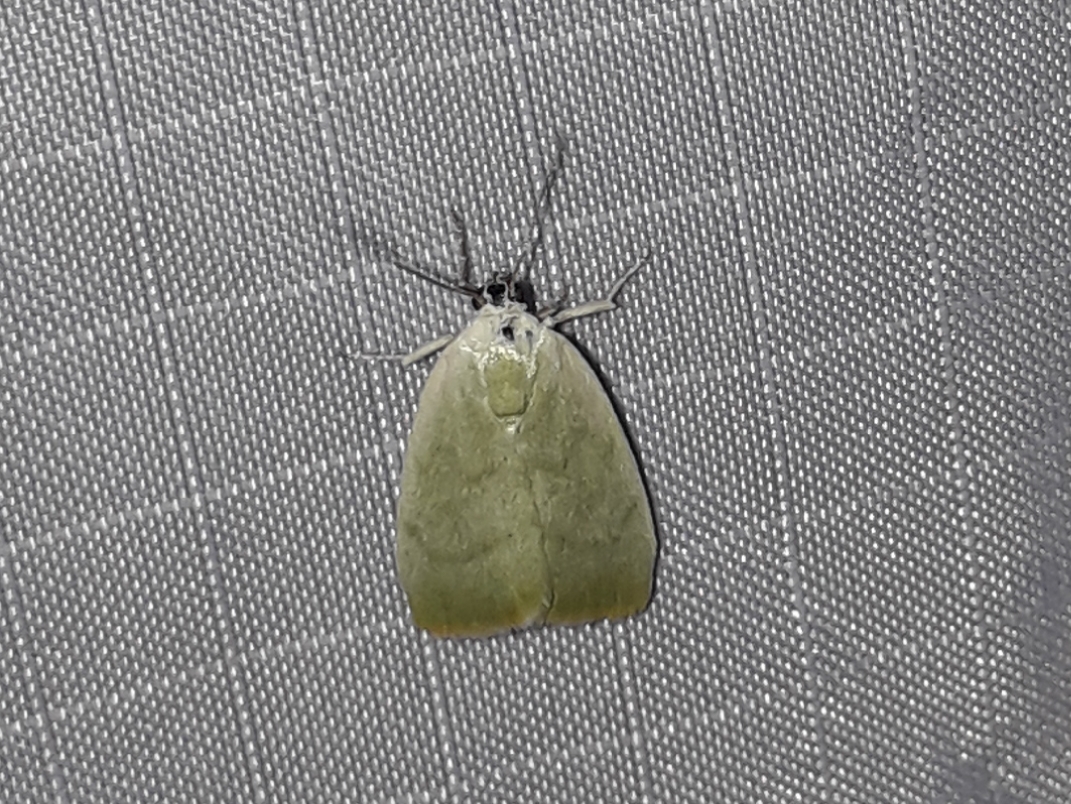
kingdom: Animalia
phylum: Arthropoda
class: Insecta
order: Lepidoptera
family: Nolidae
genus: Earias
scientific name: Earias vernana
